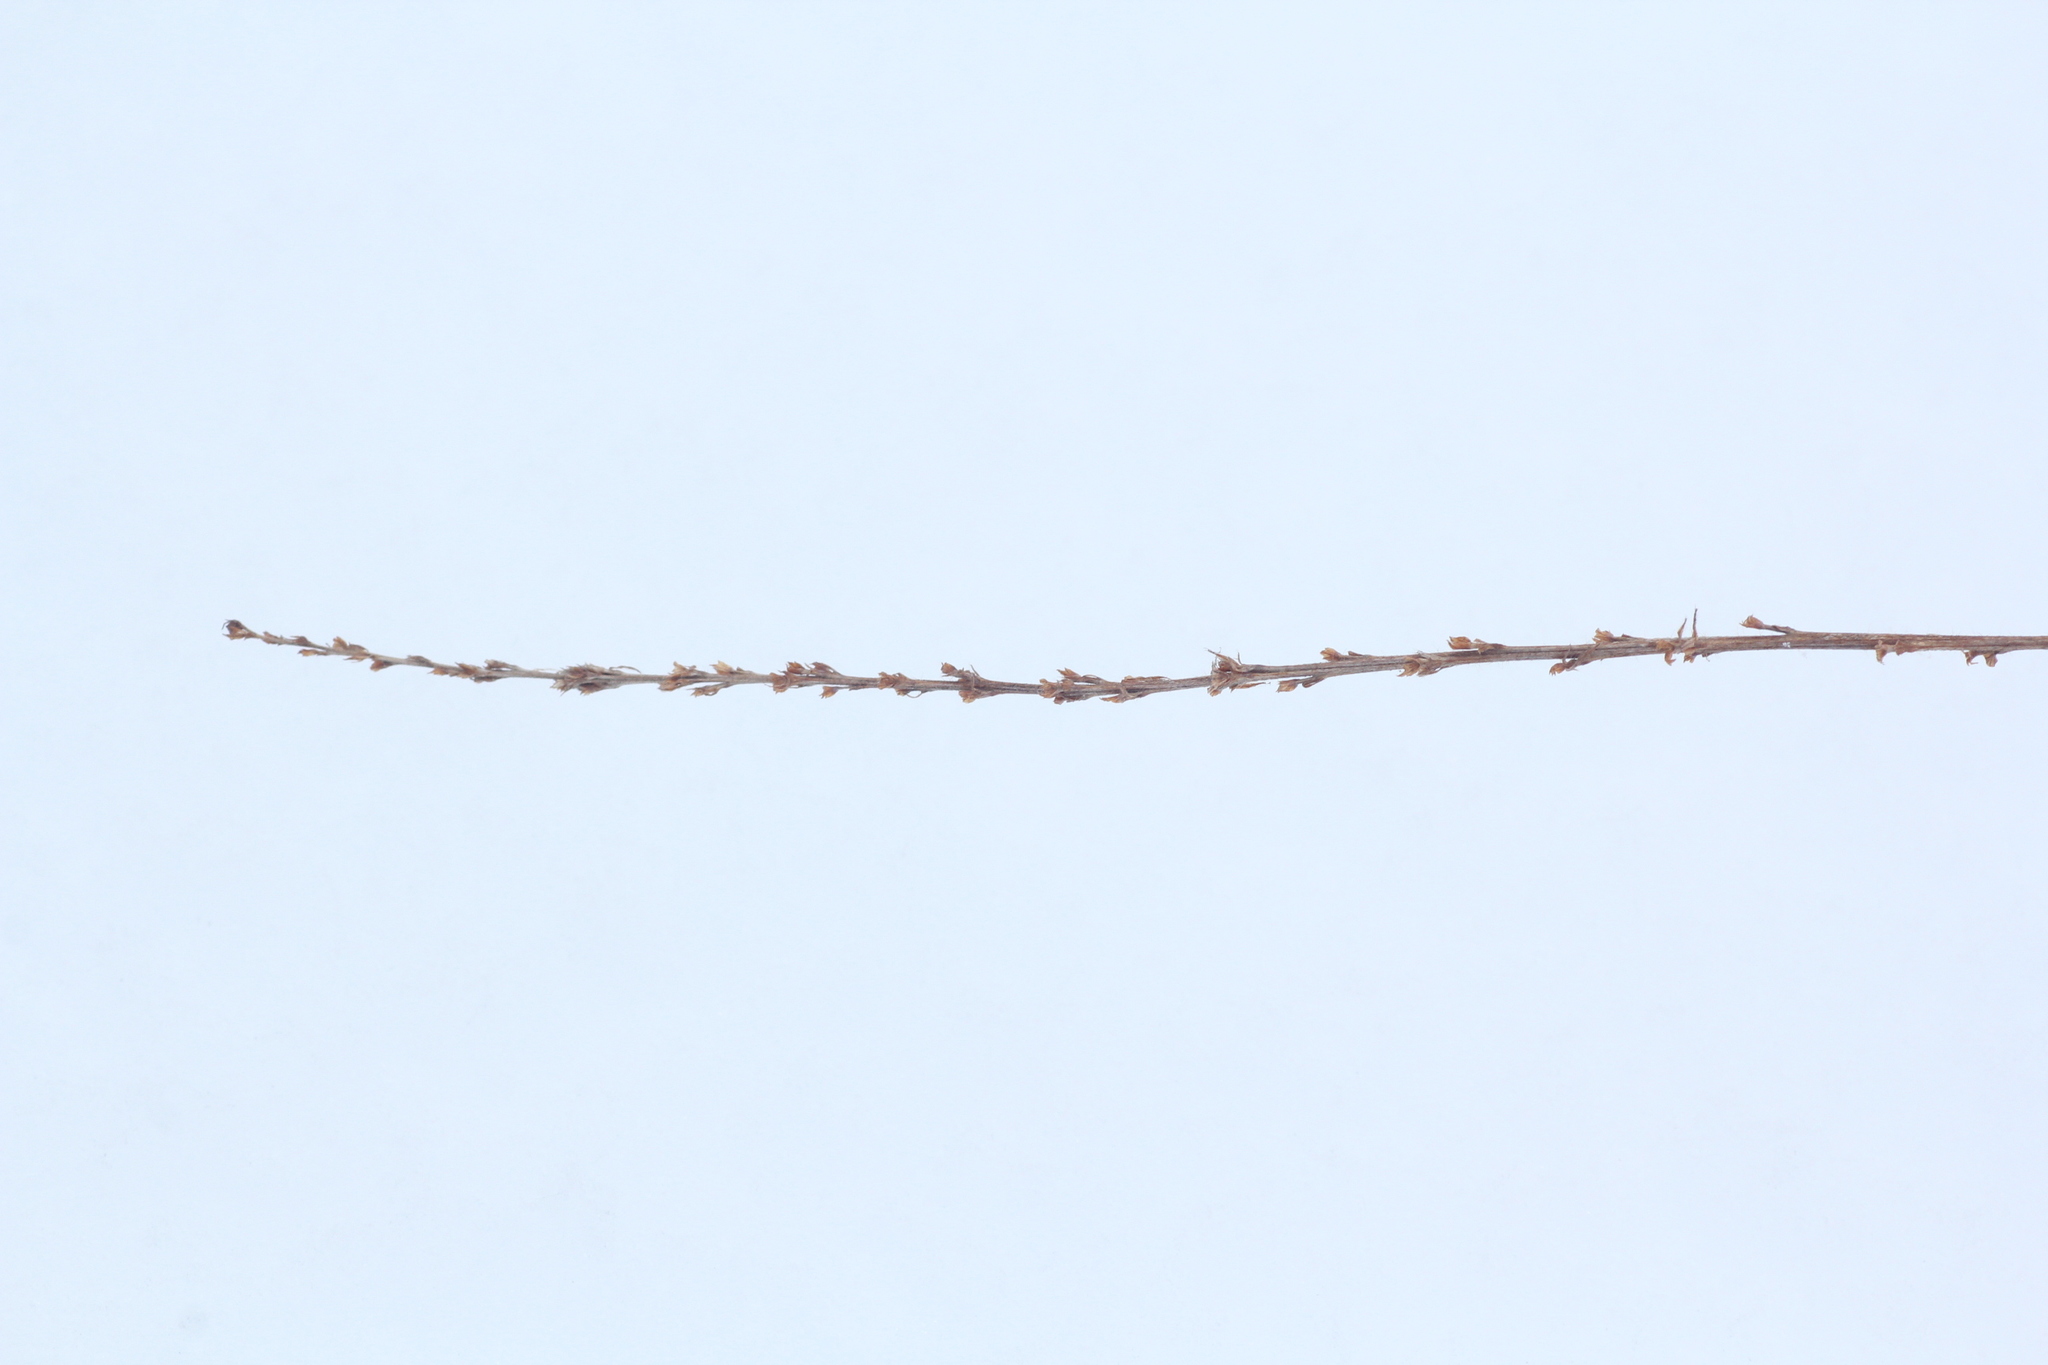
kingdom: Plantae
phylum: Tracheophyta
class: Magnoliopsida
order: Rosales
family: Rosaceae
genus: Agrimonia
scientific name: Agrimonia pilosa
